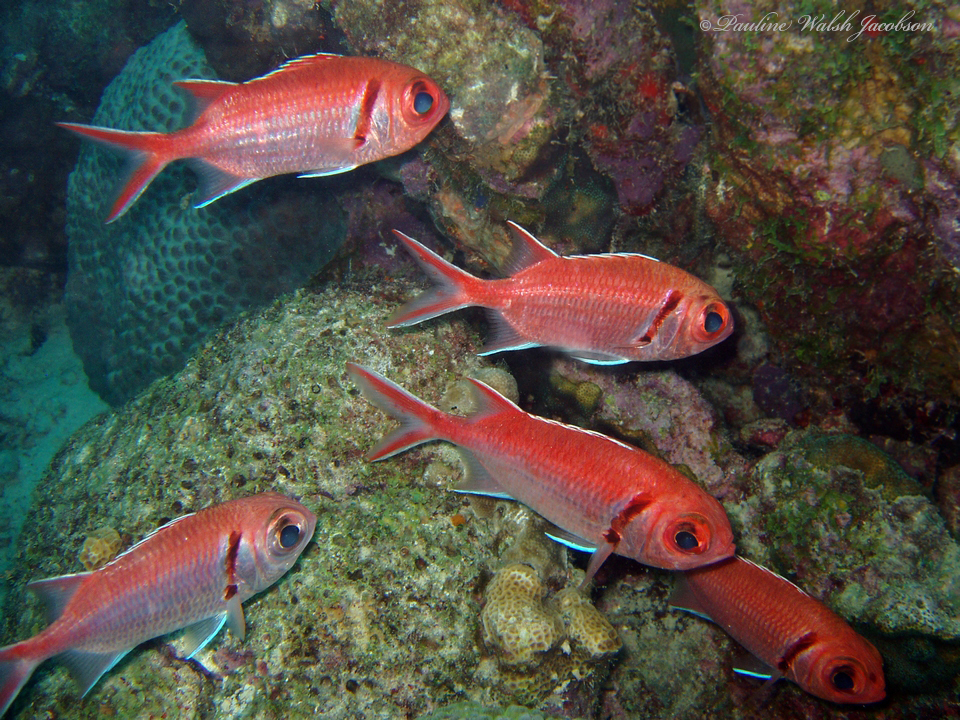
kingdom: Animalia
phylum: Chordata
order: Beryciformes
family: Holocentridae
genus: Myripristis
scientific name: Myripristis jacobus
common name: Blackbar soldierfish
